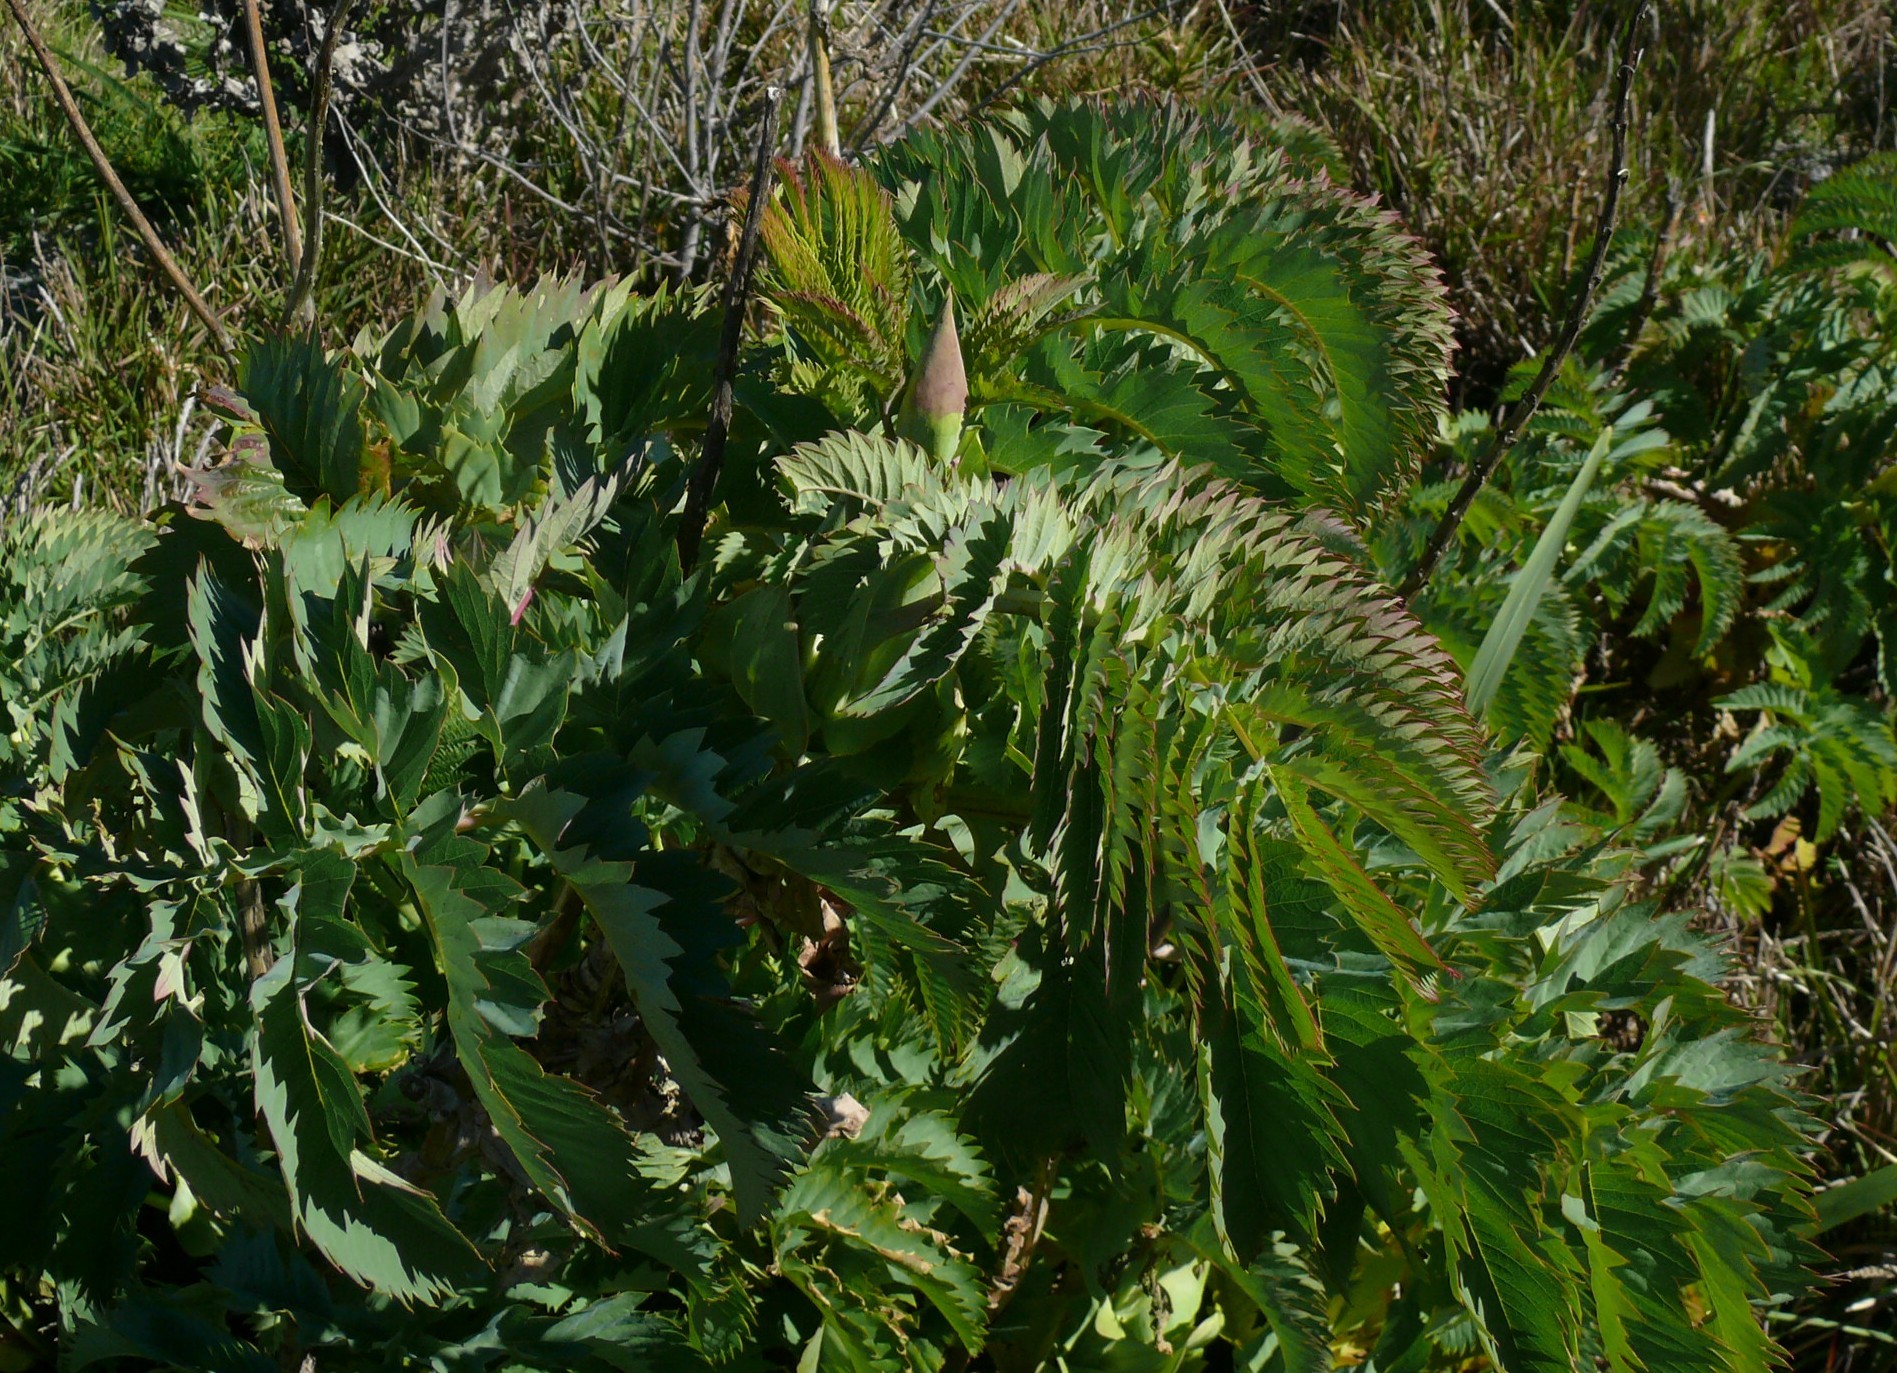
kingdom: Plantae
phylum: Tracheophyta
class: Magnoliopsida
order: Geraniales
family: Melianthaceae
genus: Melianthus
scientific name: Melianthus major
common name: Honey-flower
